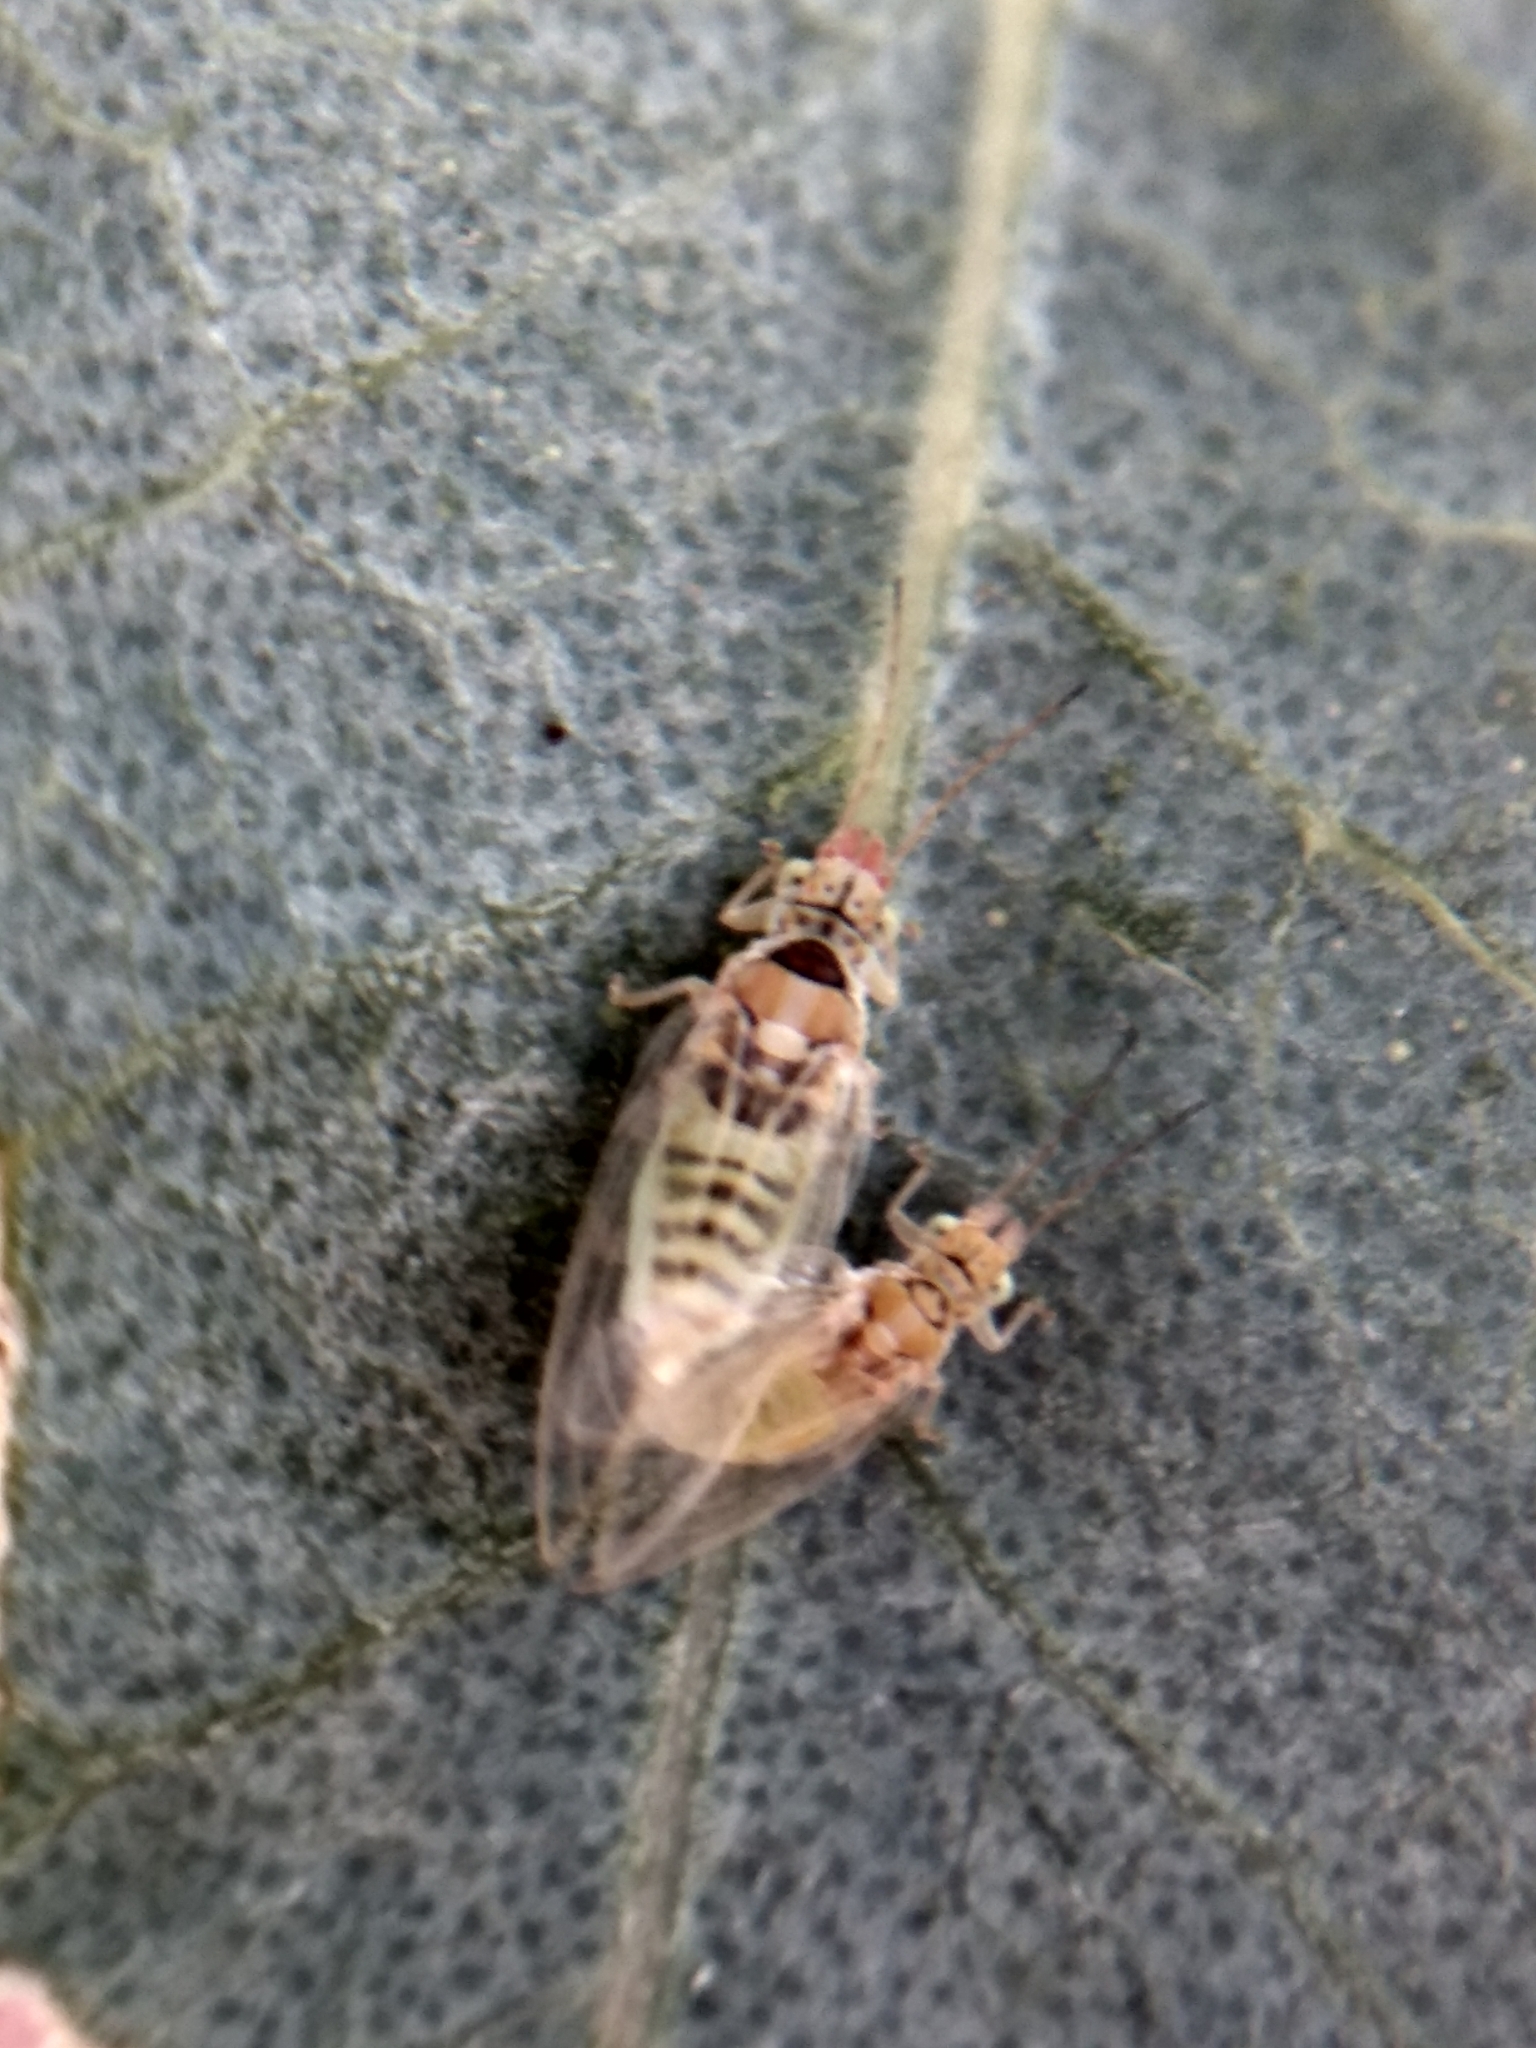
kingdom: Animalia
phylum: Arthropoda
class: Insecta
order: Hemiptera
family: Aphalaridae
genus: Glycaspis
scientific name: Glycaspis brimblecombei
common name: Red gum lerp psyllid
